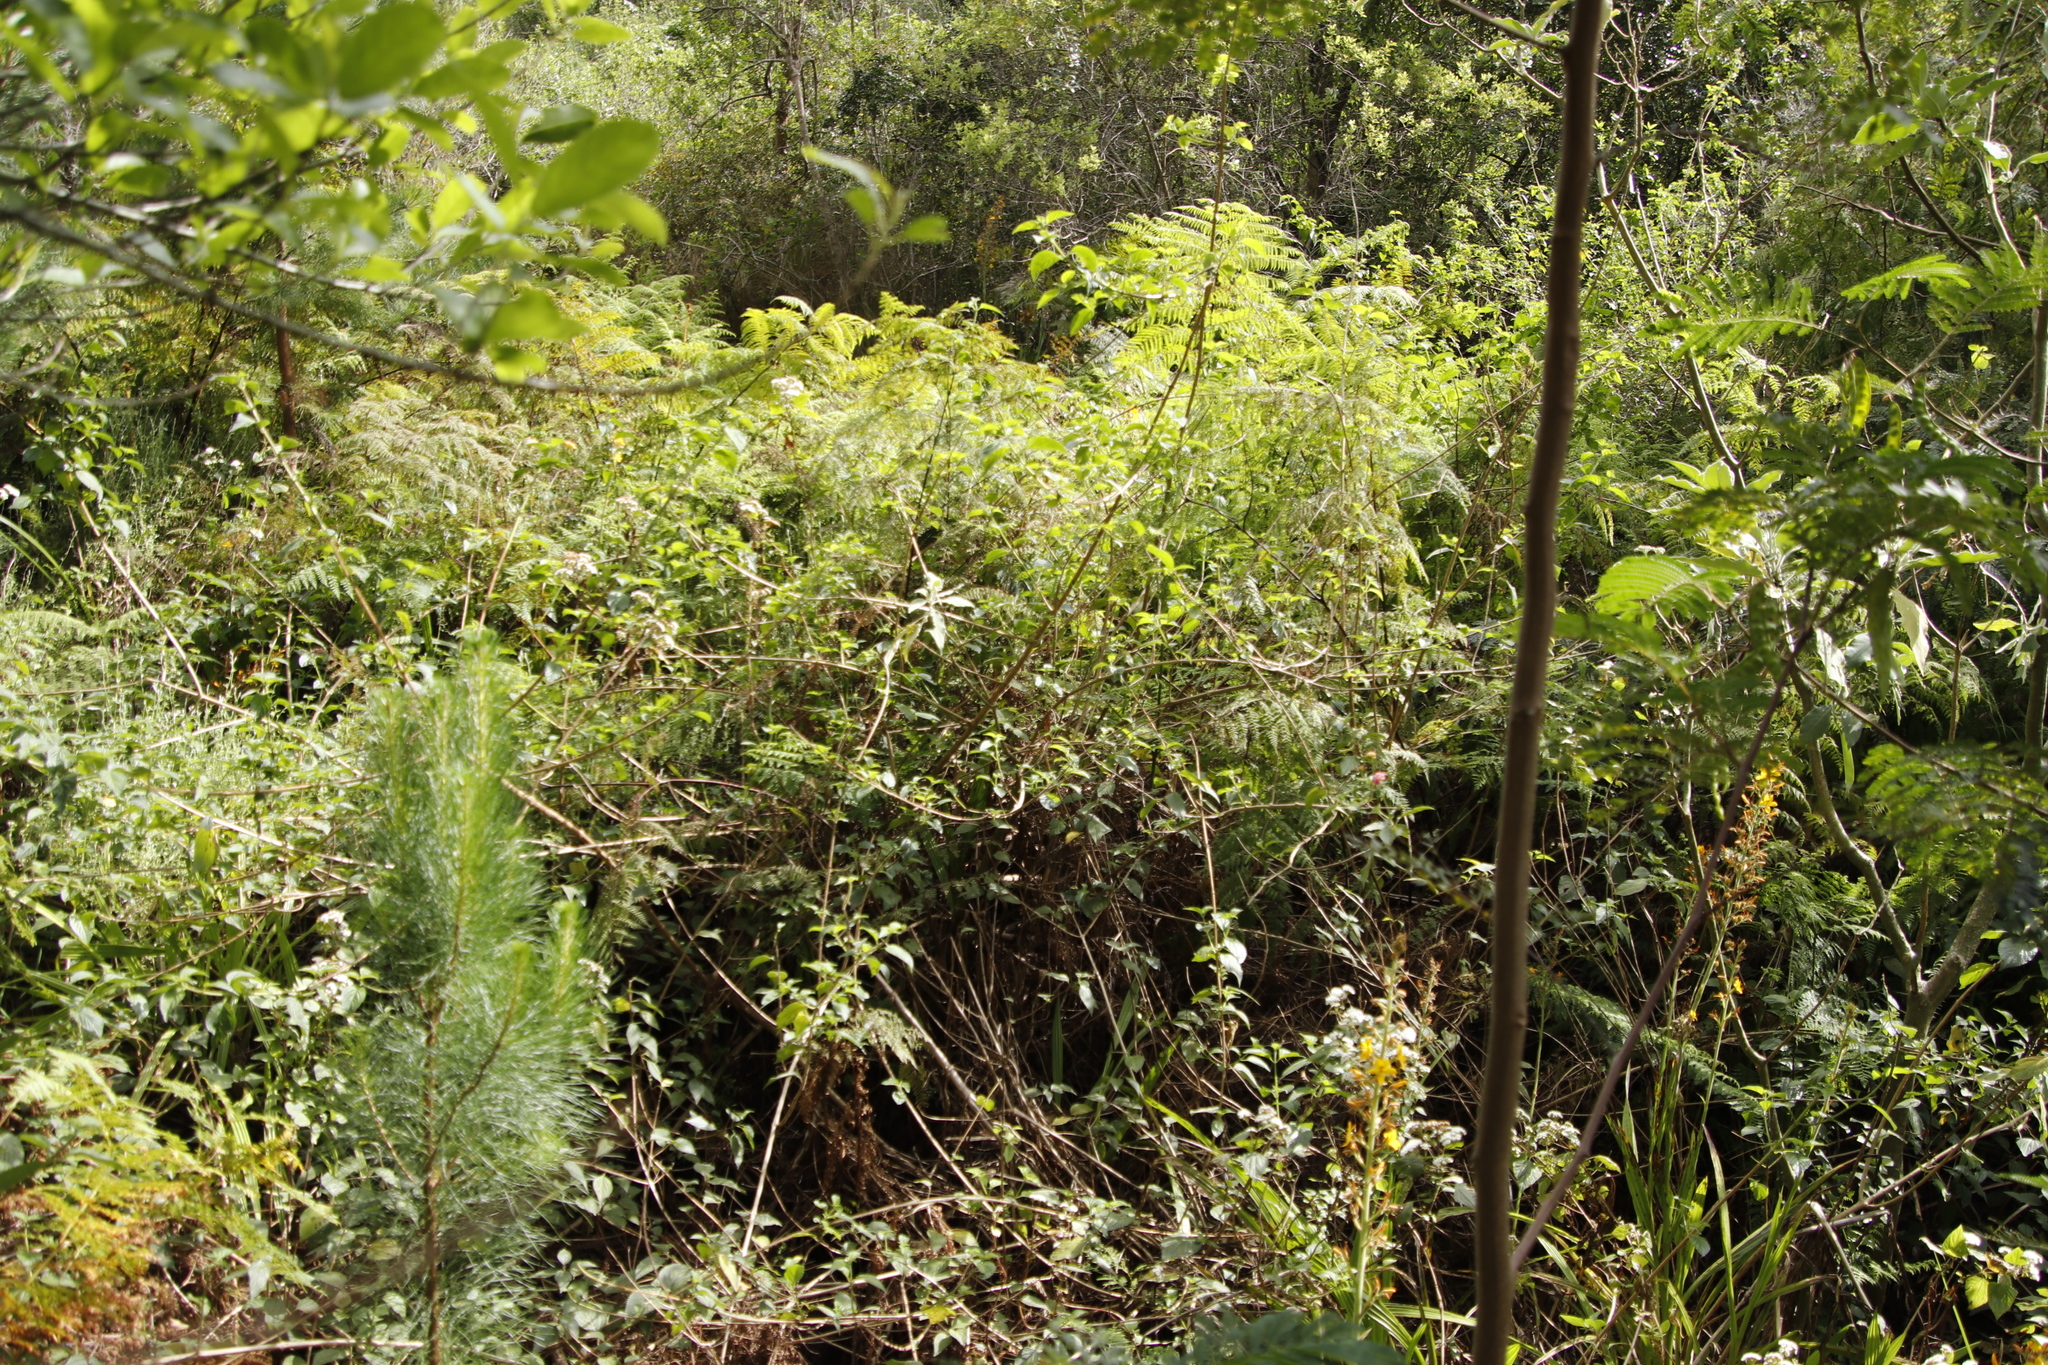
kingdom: Plantae
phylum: Tracheophyta
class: Magnoliopsida
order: Lamiales
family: Verbenaceae
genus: Lantana
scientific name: Lantana camara
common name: Lantana
